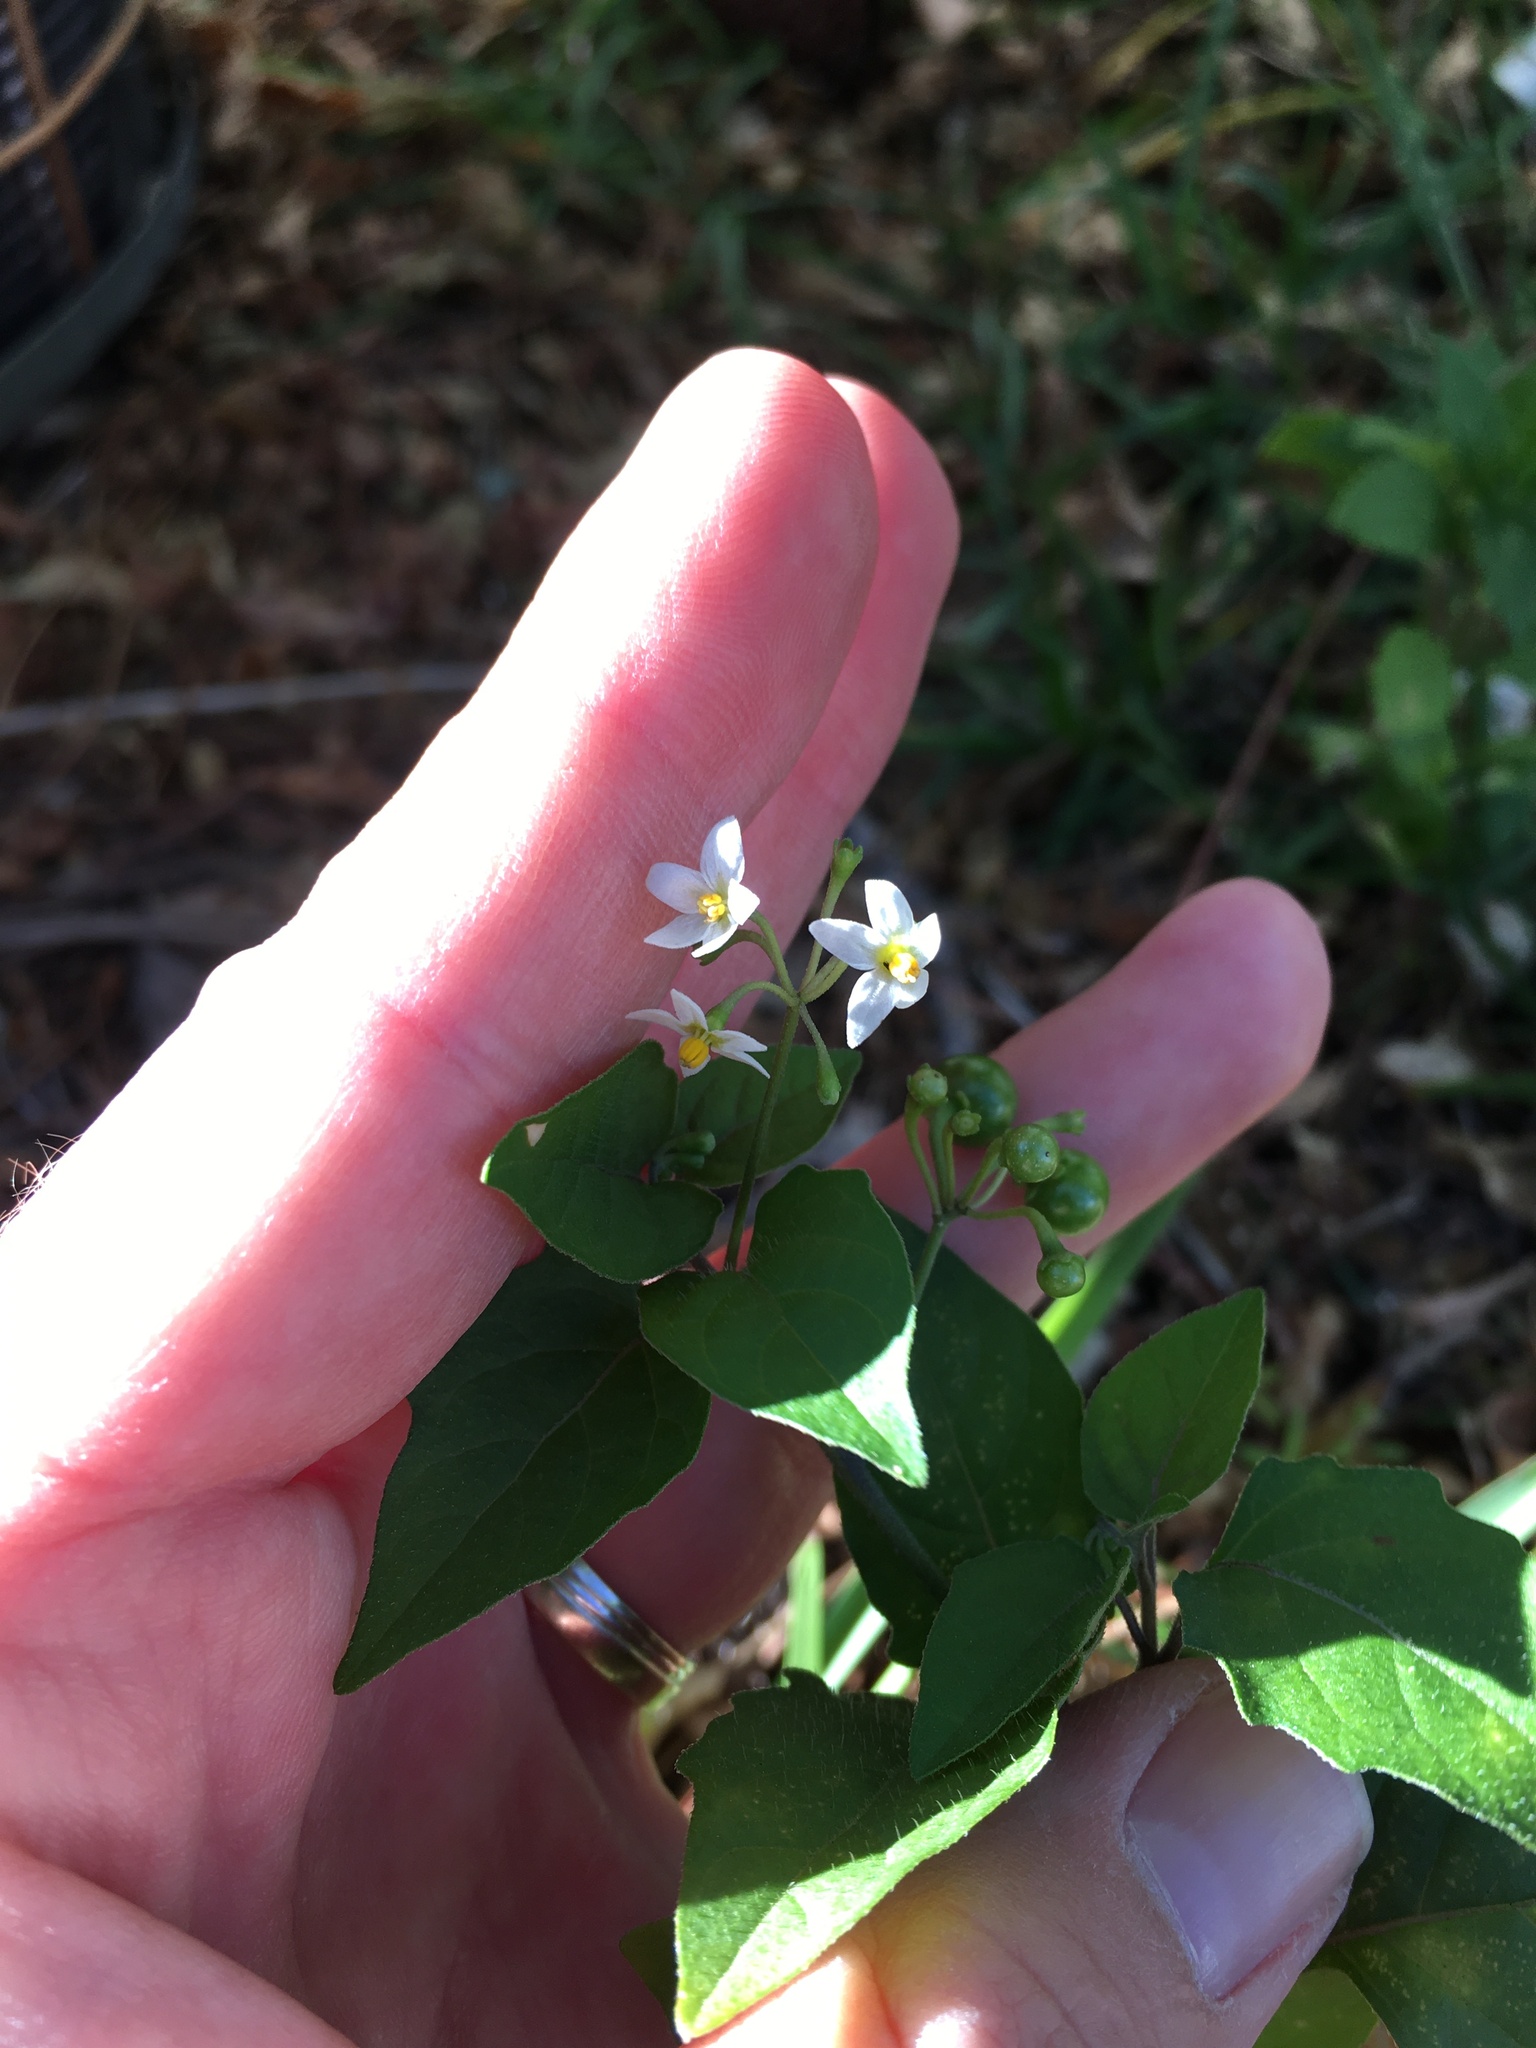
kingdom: Plantae
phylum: Tracheophyta
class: Magnoliopsida
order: Solanales
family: Solanaceae
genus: Solanum
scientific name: Solanum americanum
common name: American black nightshade
